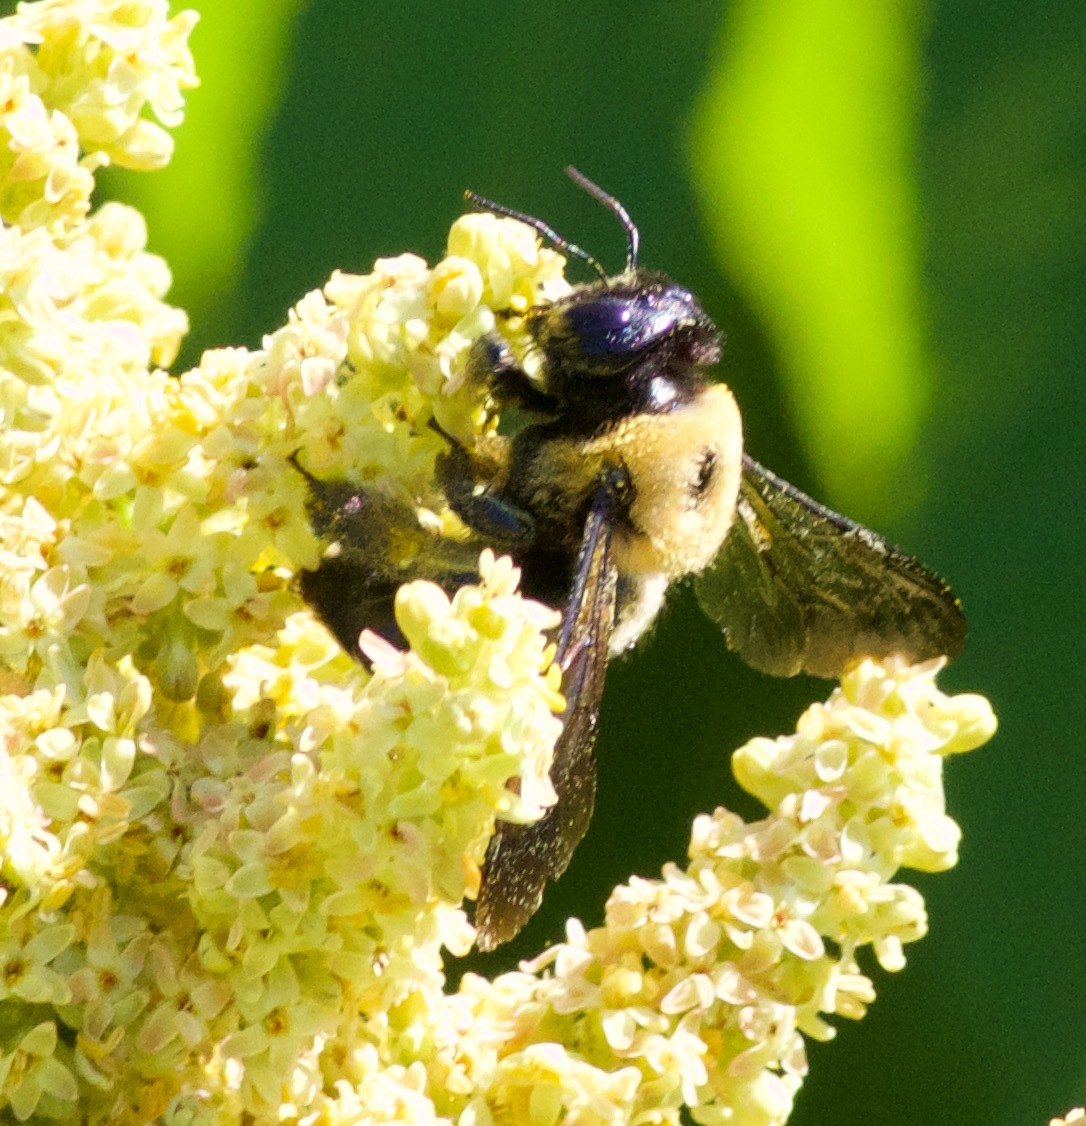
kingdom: Animalia
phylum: Arthropoda
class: Insecta
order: Hymenoptera
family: Apidae
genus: Xylocopa
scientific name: Xylocopa virginica
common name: Carpenter bee
